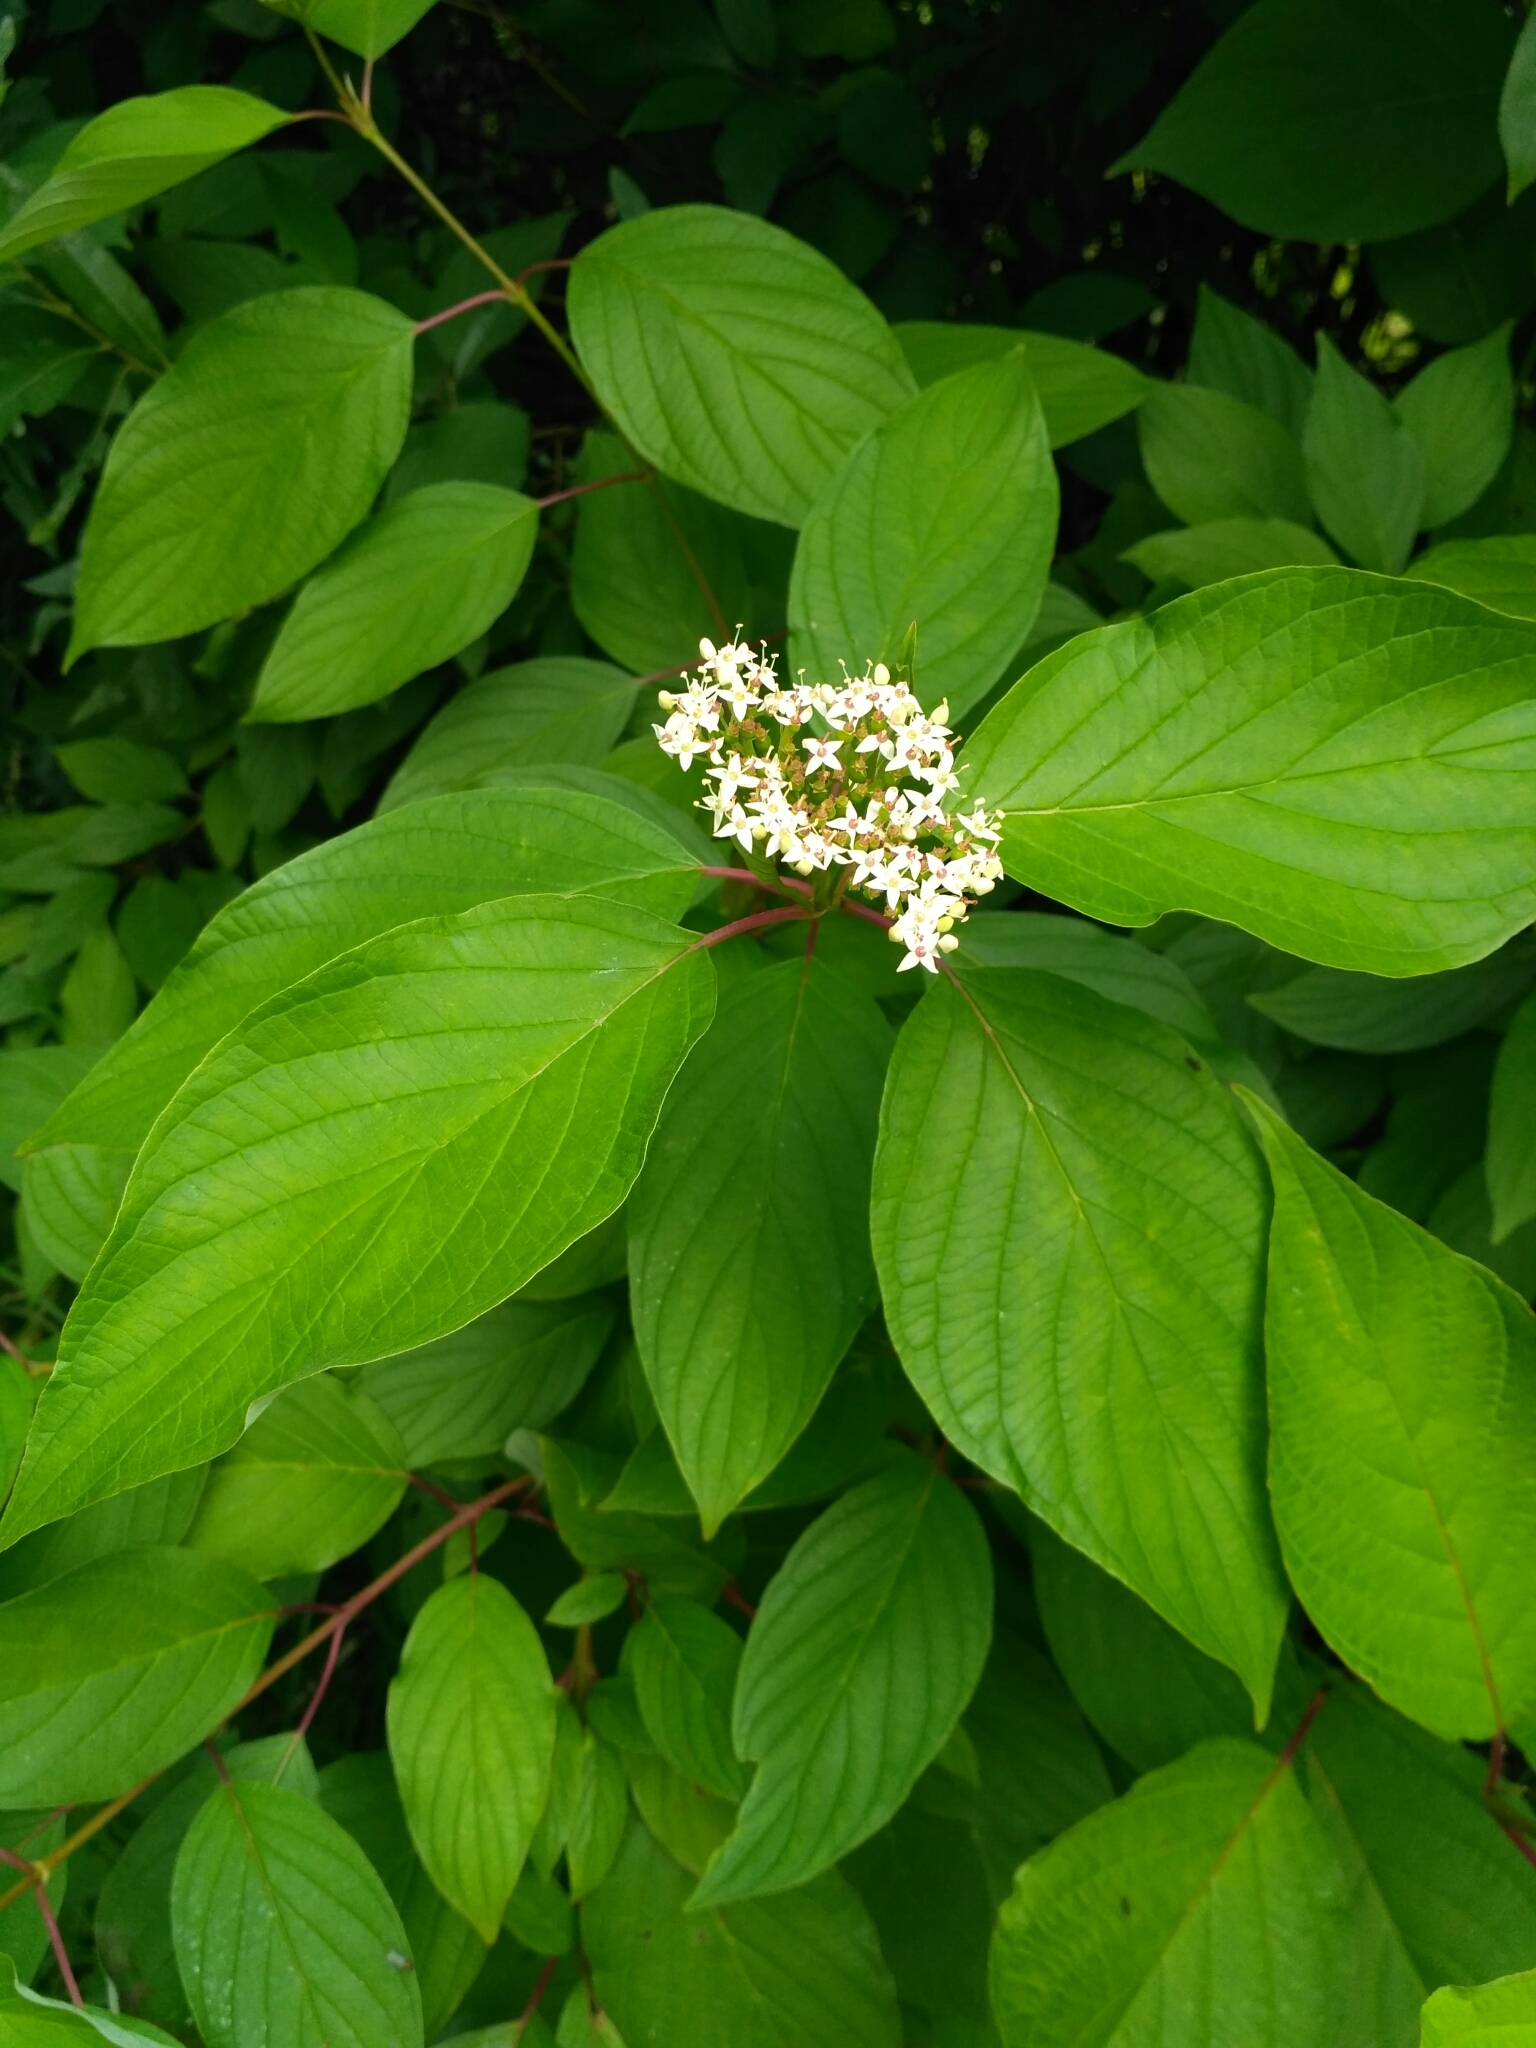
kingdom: Plantae
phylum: Tracheophyta
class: Magnoliopsida
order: Cornales
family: Cornaceae
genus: Cornus
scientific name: Cornus alba
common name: White dogwood
